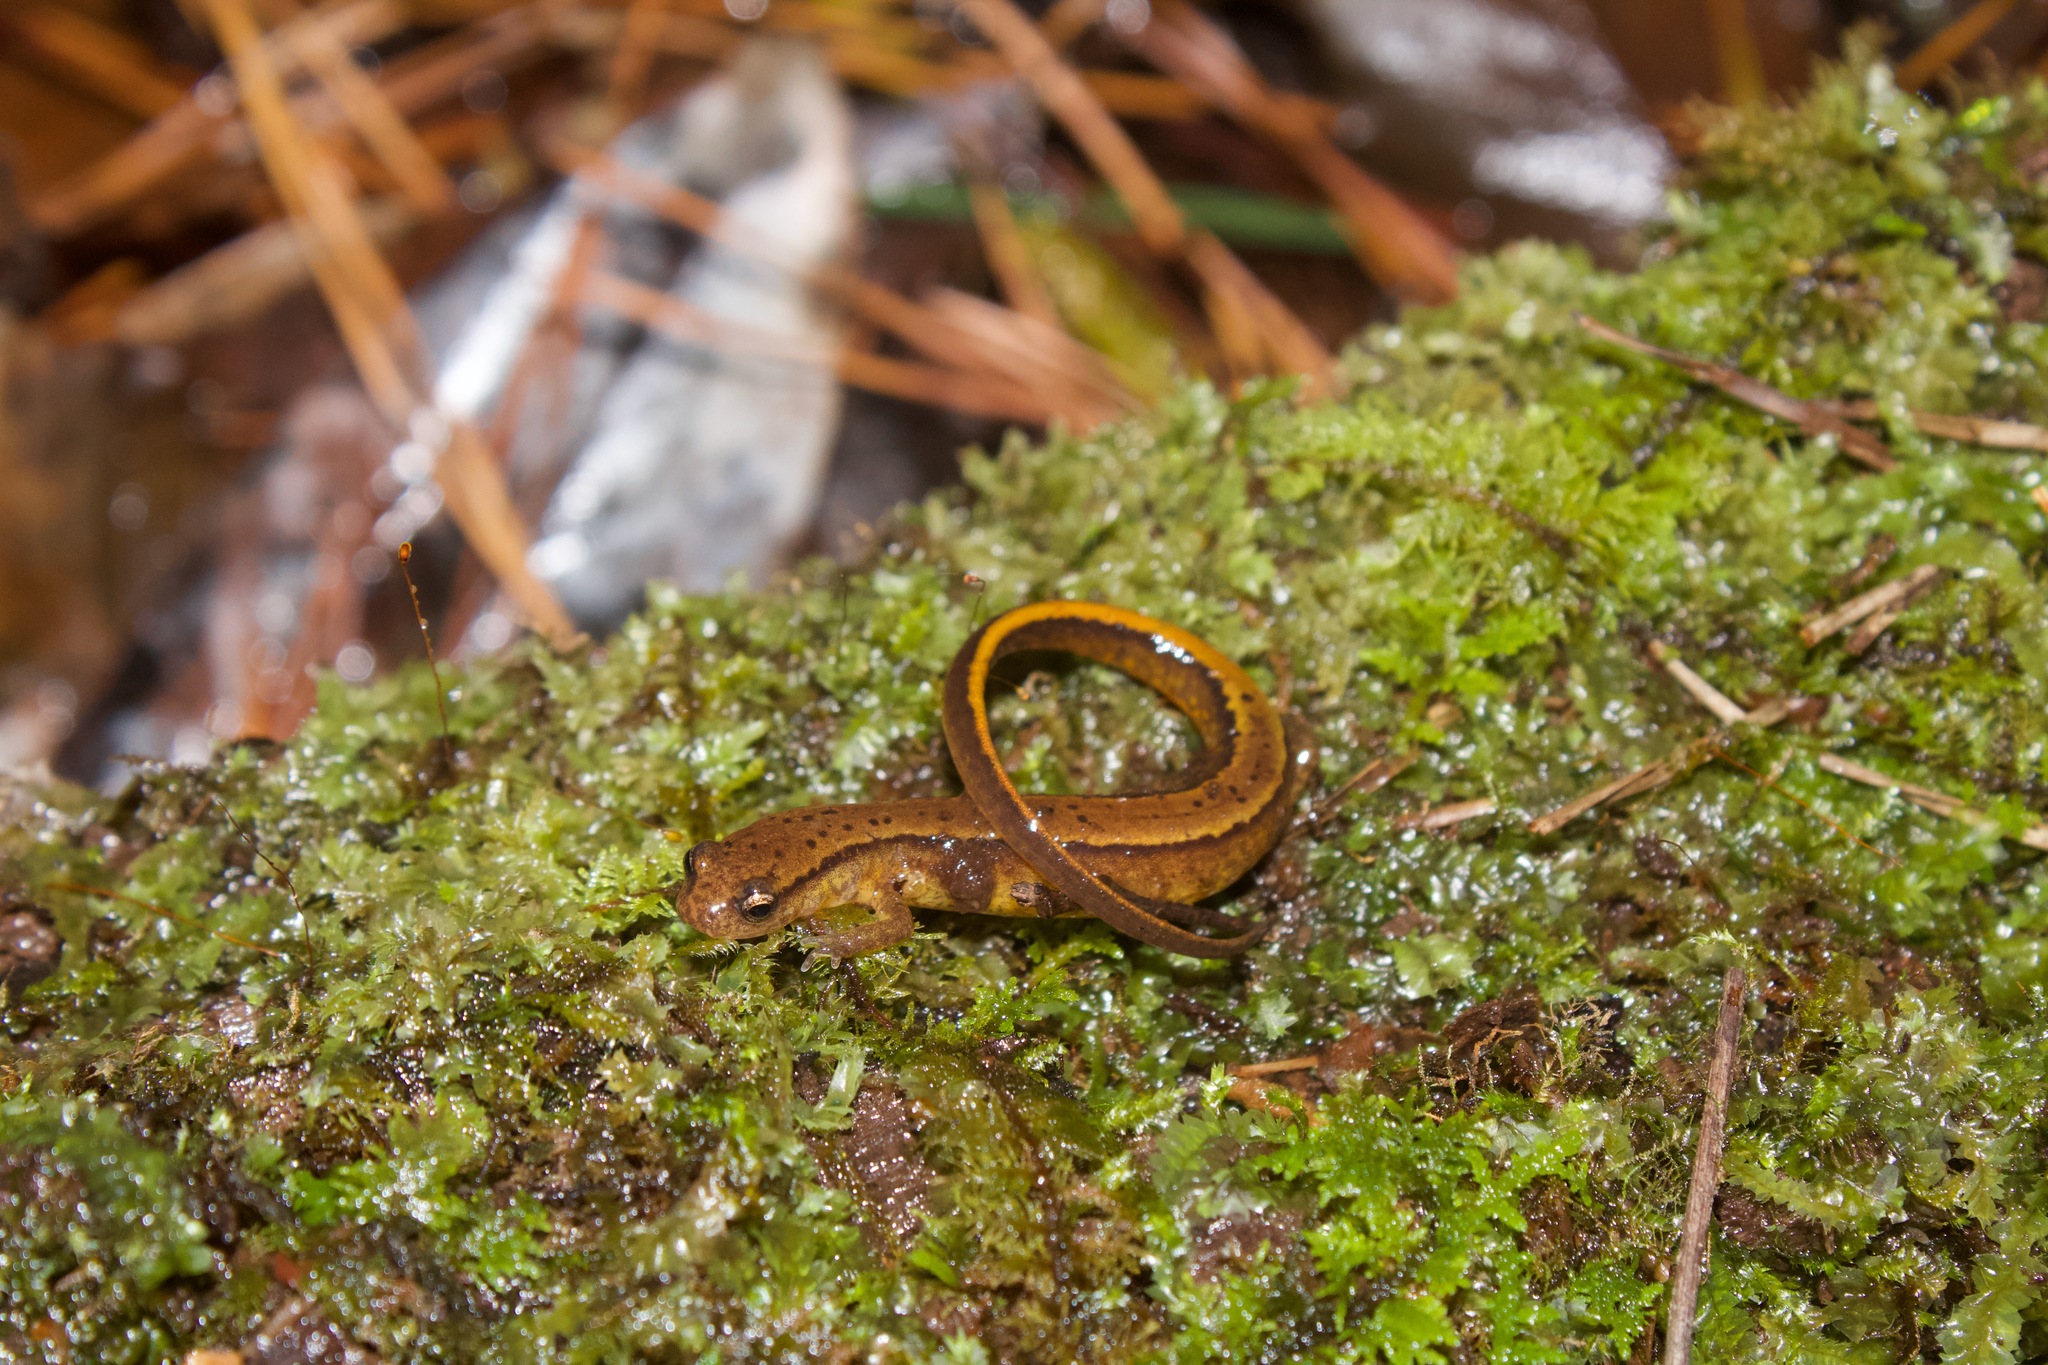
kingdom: Animalia
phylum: Chordata
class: Amphibia
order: Caudata
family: Plethodontidae
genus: Eurycea
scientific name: Eurycea cirrigera
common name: Southern two-lined salamander
